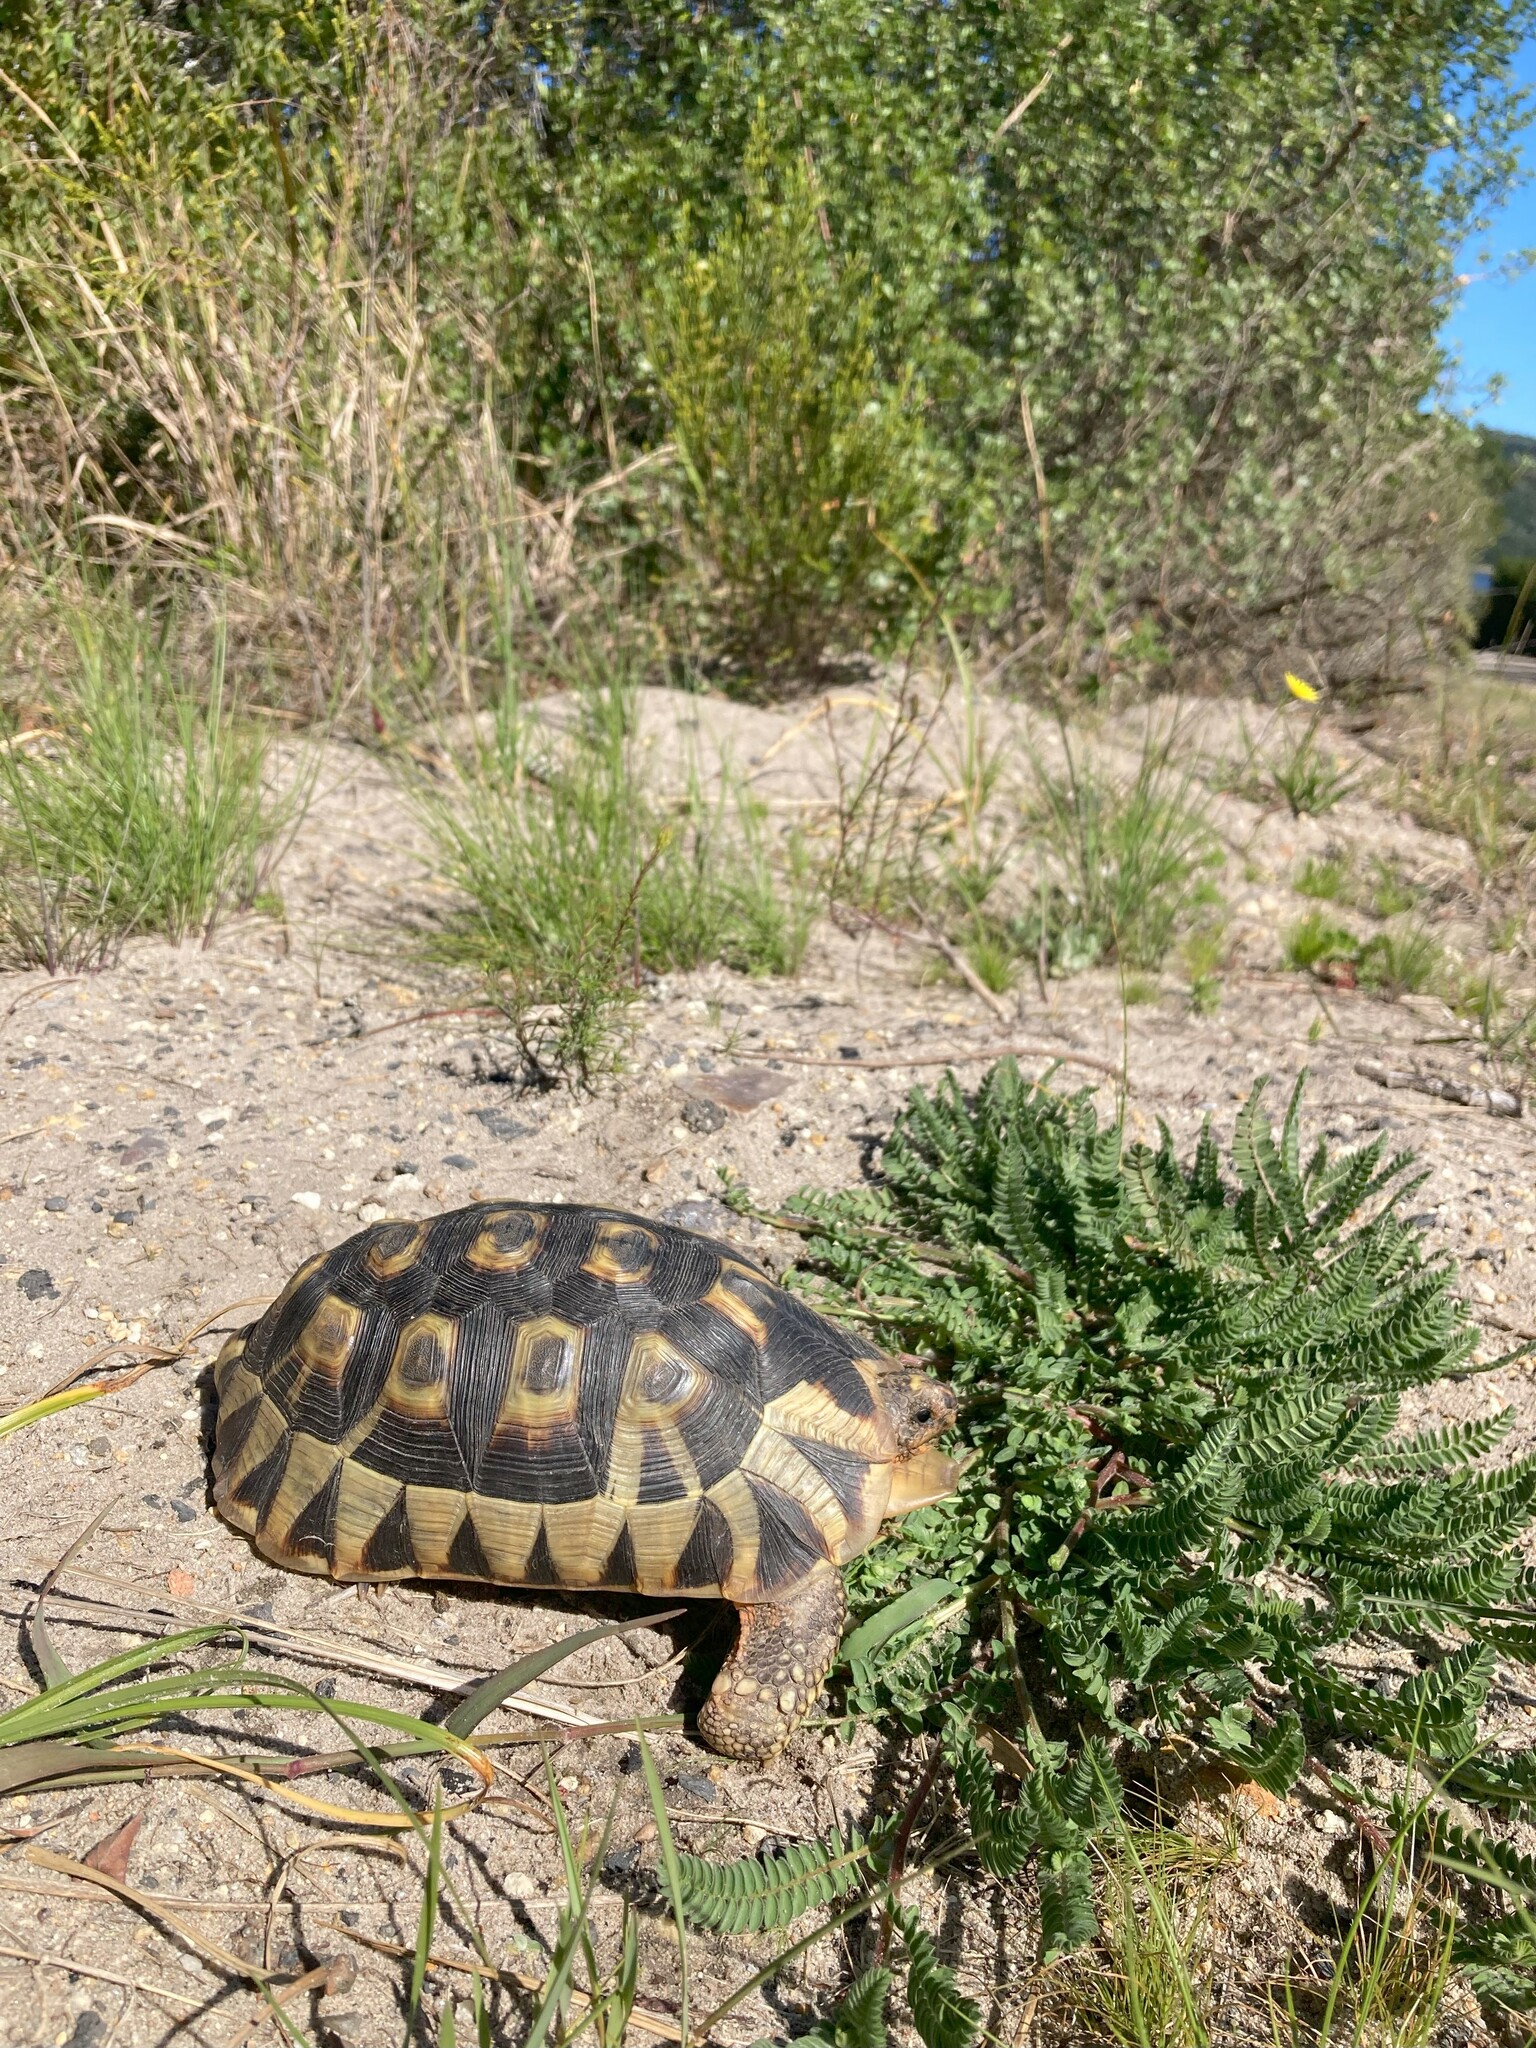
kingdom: Animalia
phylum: Chordata
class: Testudines
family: Testudinidae
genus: Chersina
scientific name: Chersina angulata
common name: South african bowsprit tortoise
